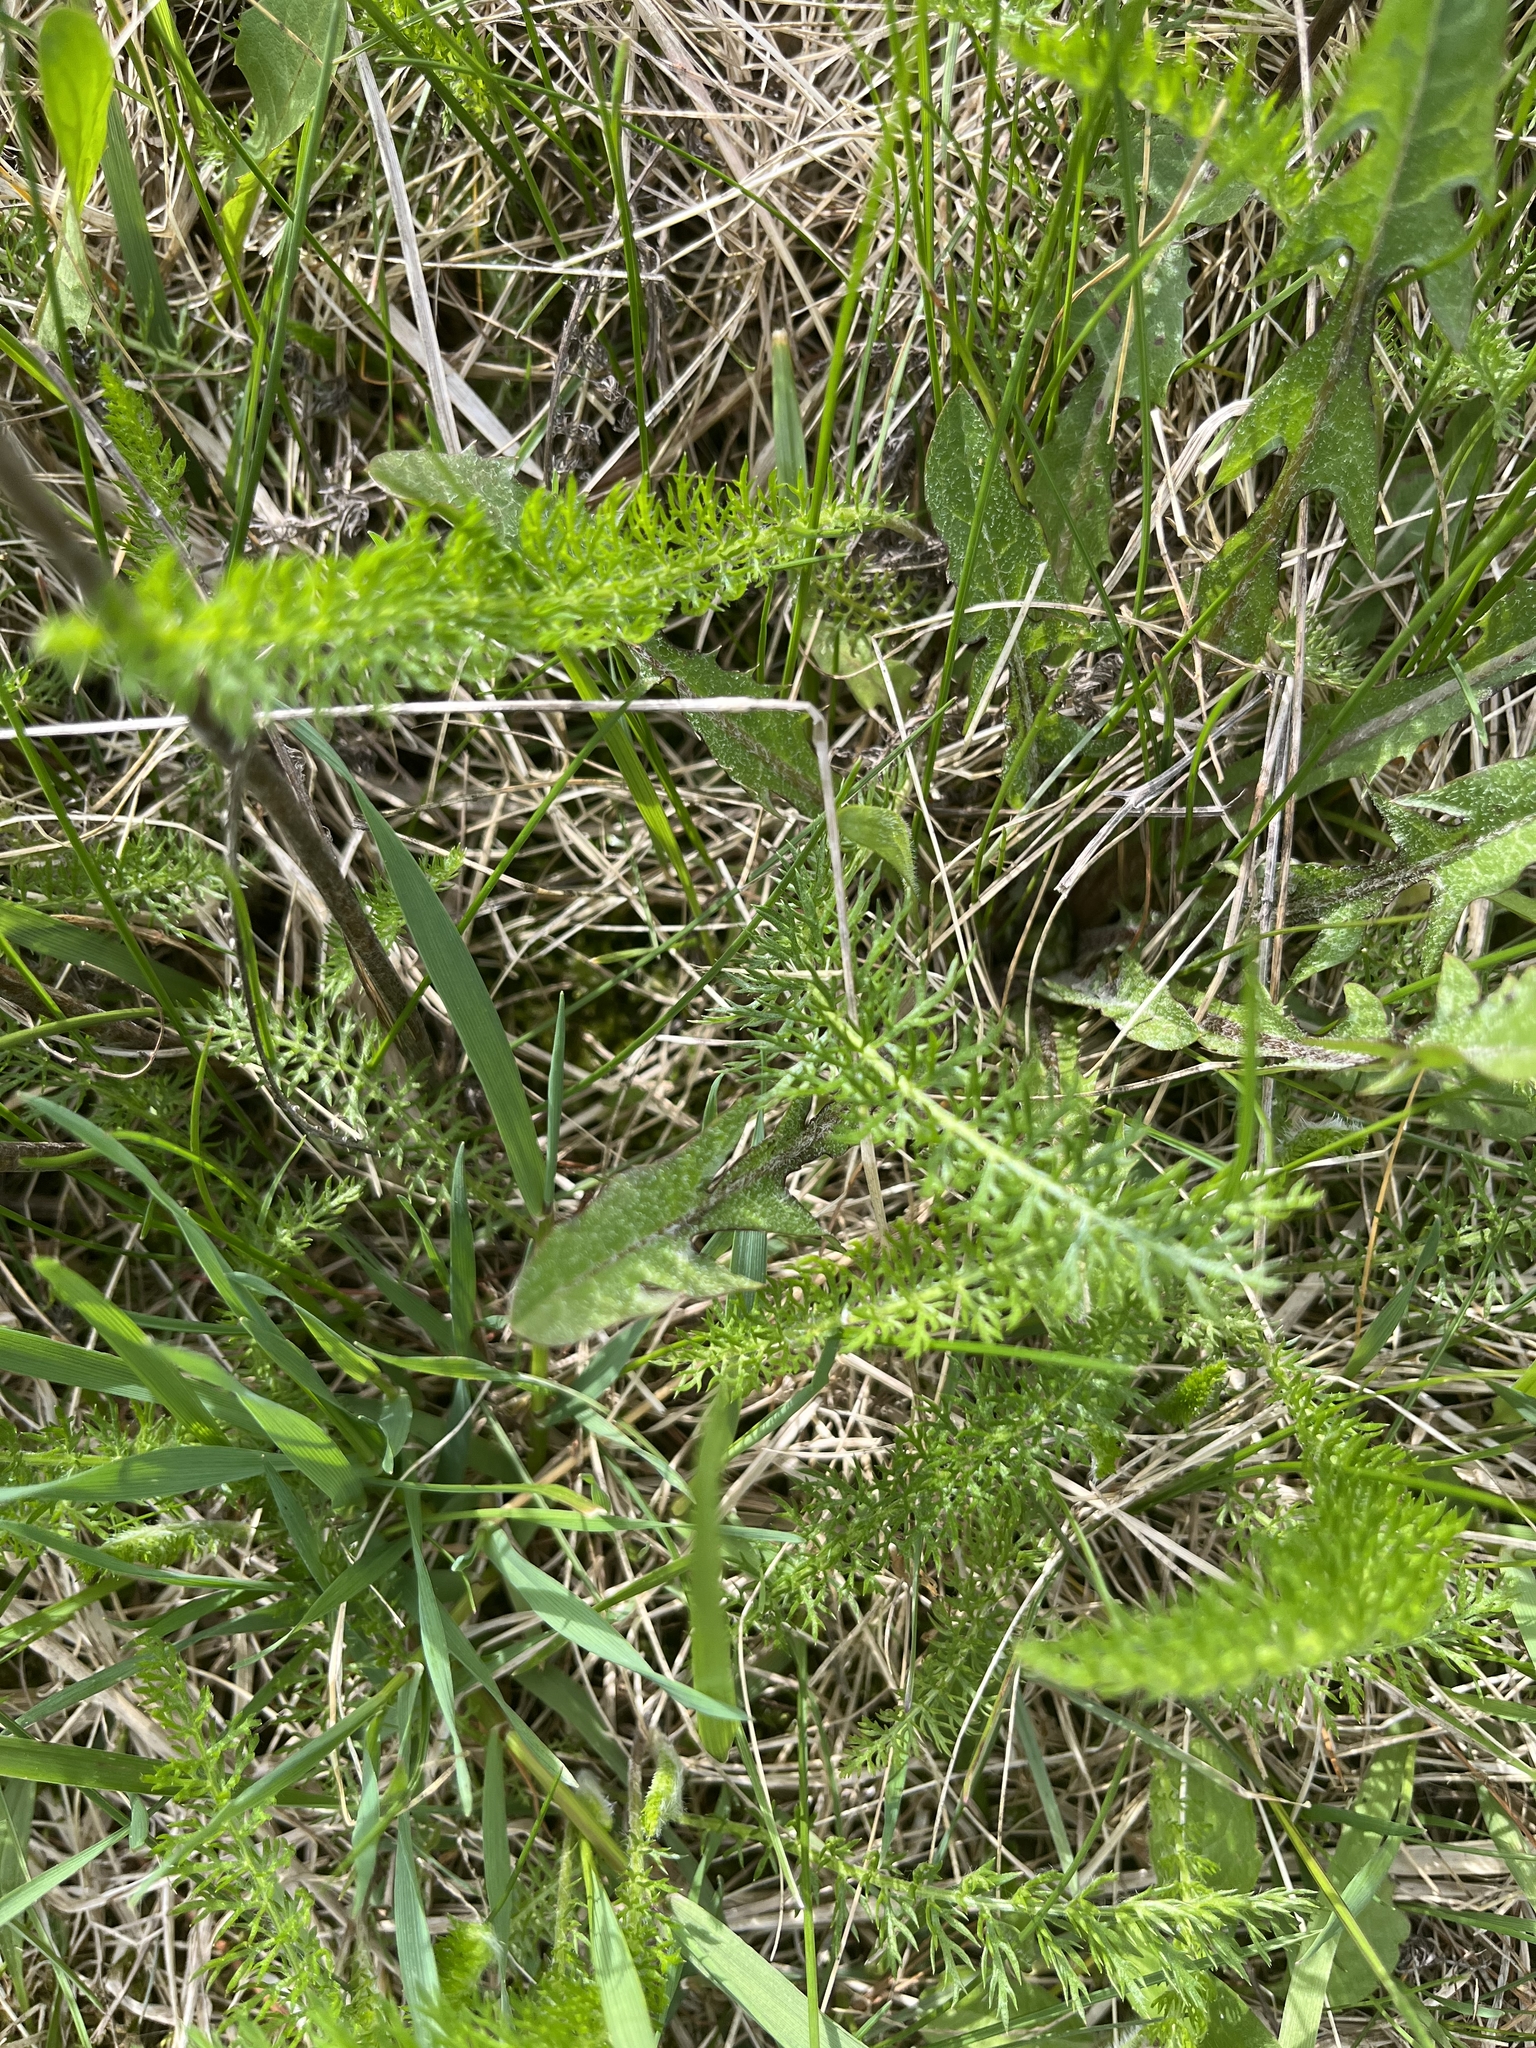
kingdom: Plantae
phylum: Tracheophyta
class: Magnoliopsida
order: Asterales
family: Asteraceae
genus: Achillea
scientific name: Achillea millefolium
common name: Yarrow
